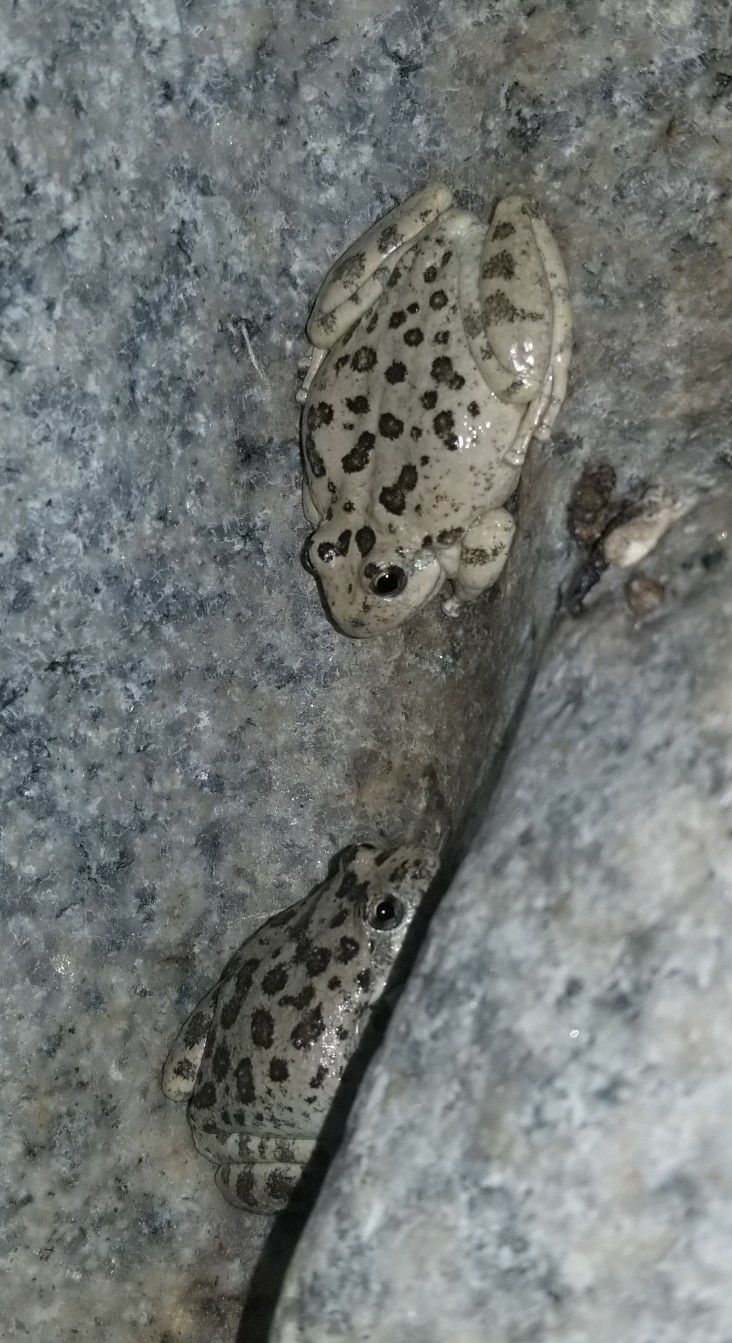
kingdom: Animalia
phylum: Chordata
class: Amphibia
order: Anura
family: Hylidae
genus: Pseudacris
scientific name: Pseudacris cadaverina
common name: California chorus frog
